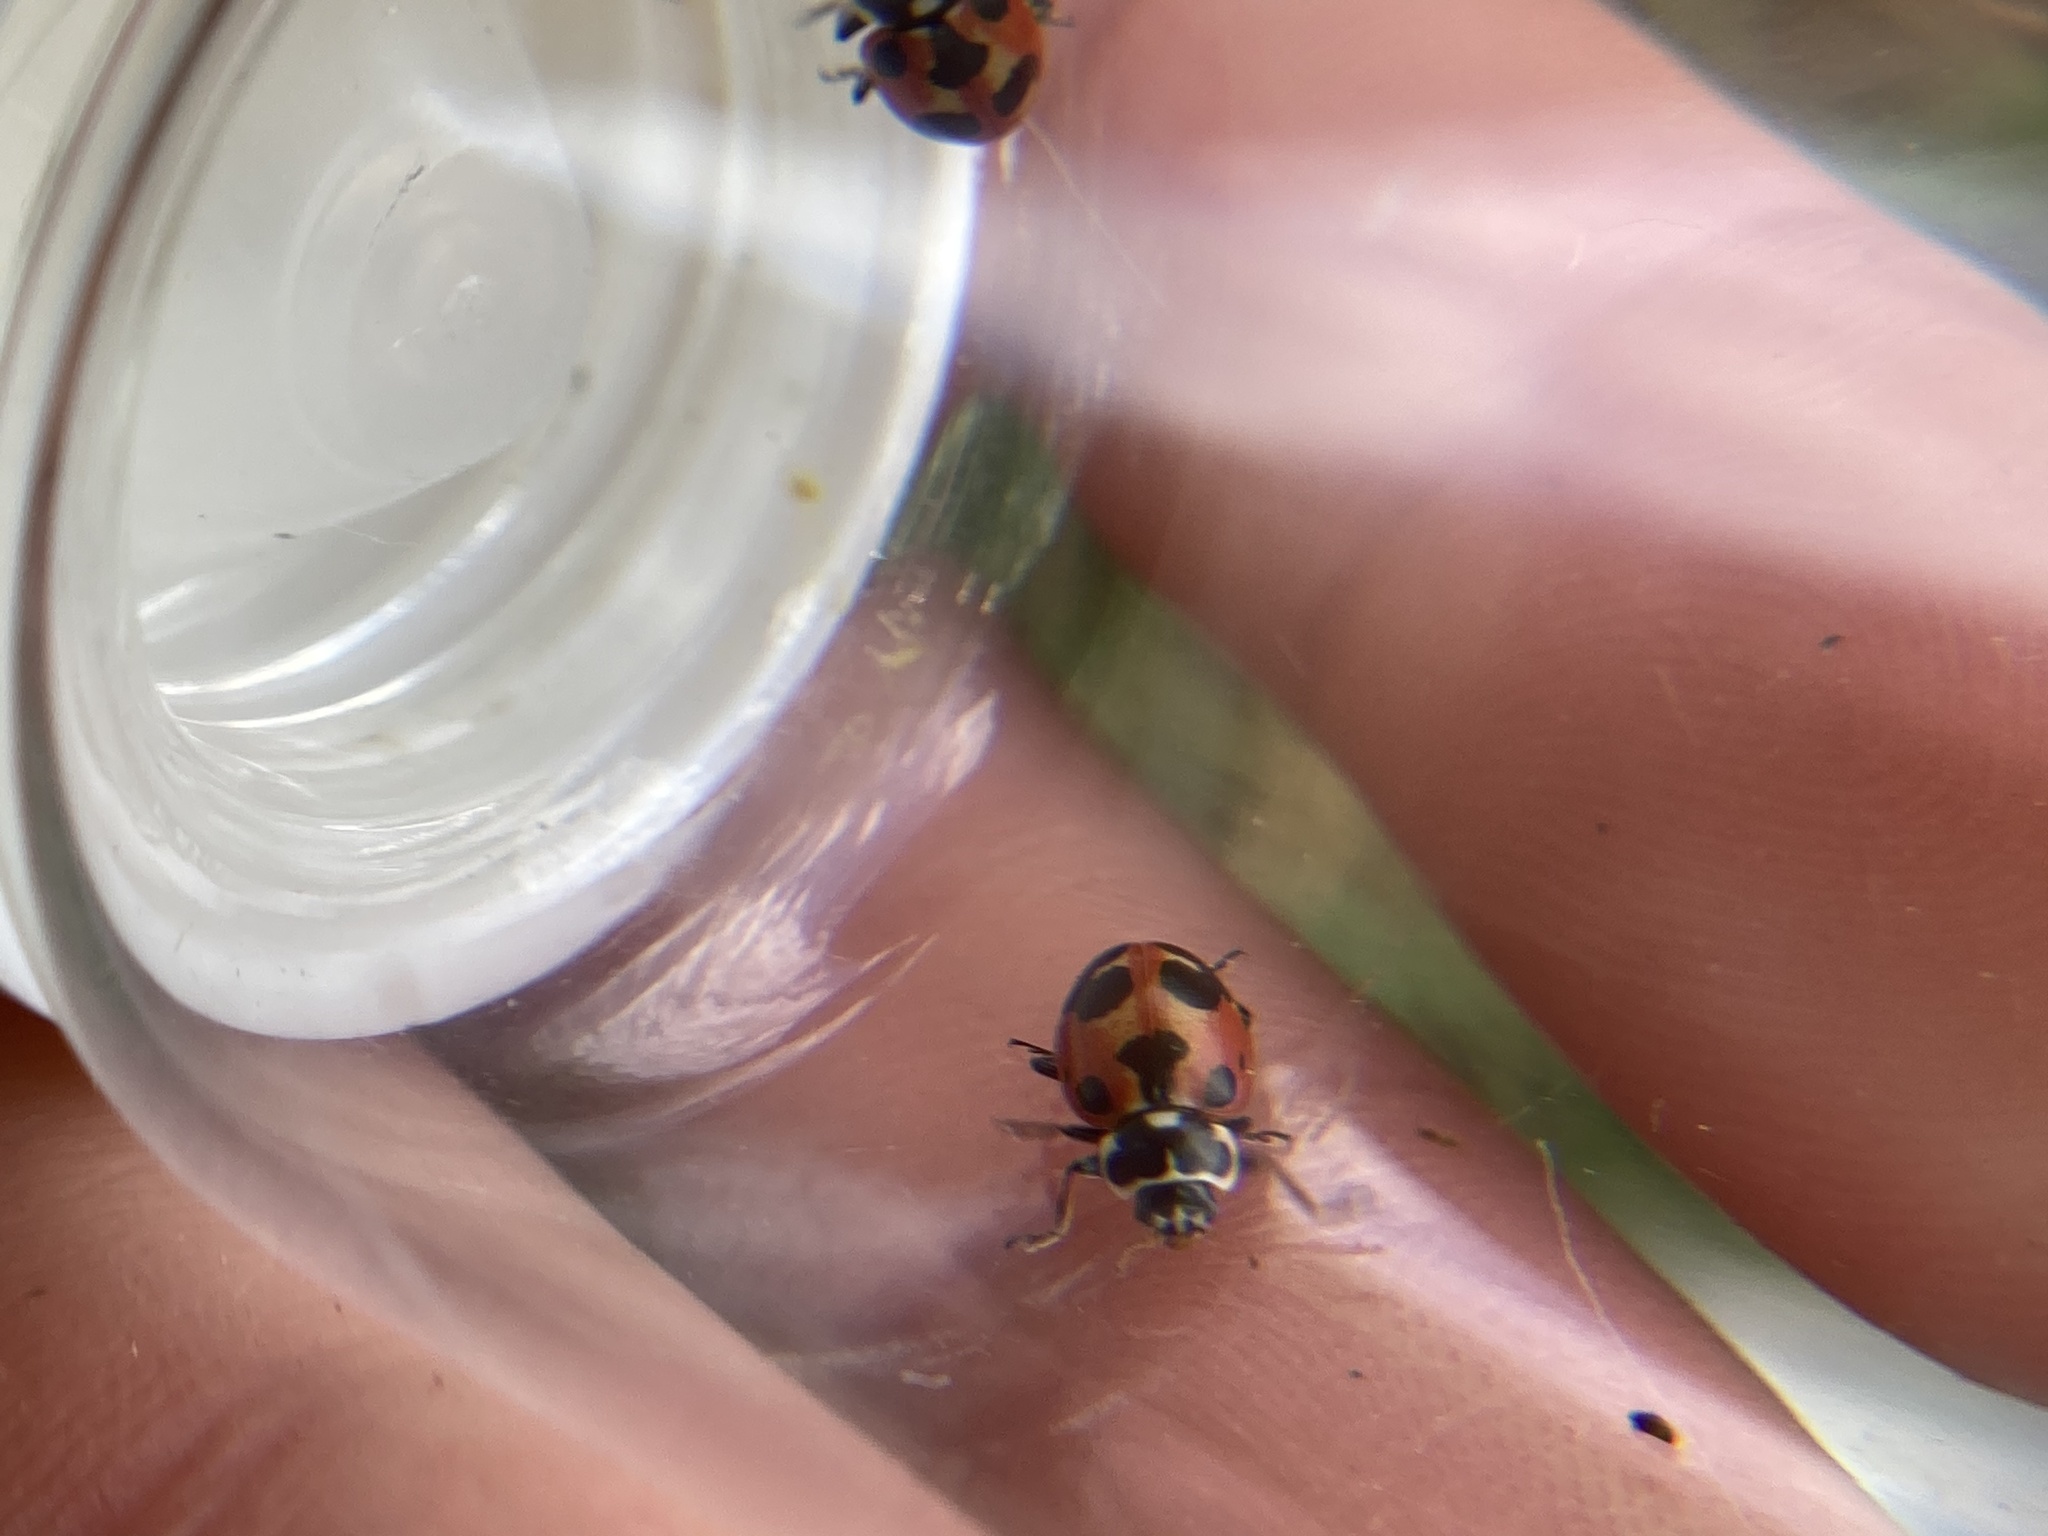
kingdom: Animalia
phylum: Arthropoda
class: Insecta
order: Coleoptera
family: Coccinellidae
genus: Hippodamia
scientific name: Hippodamia parenthesis
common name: Parenthesis lady beetle
